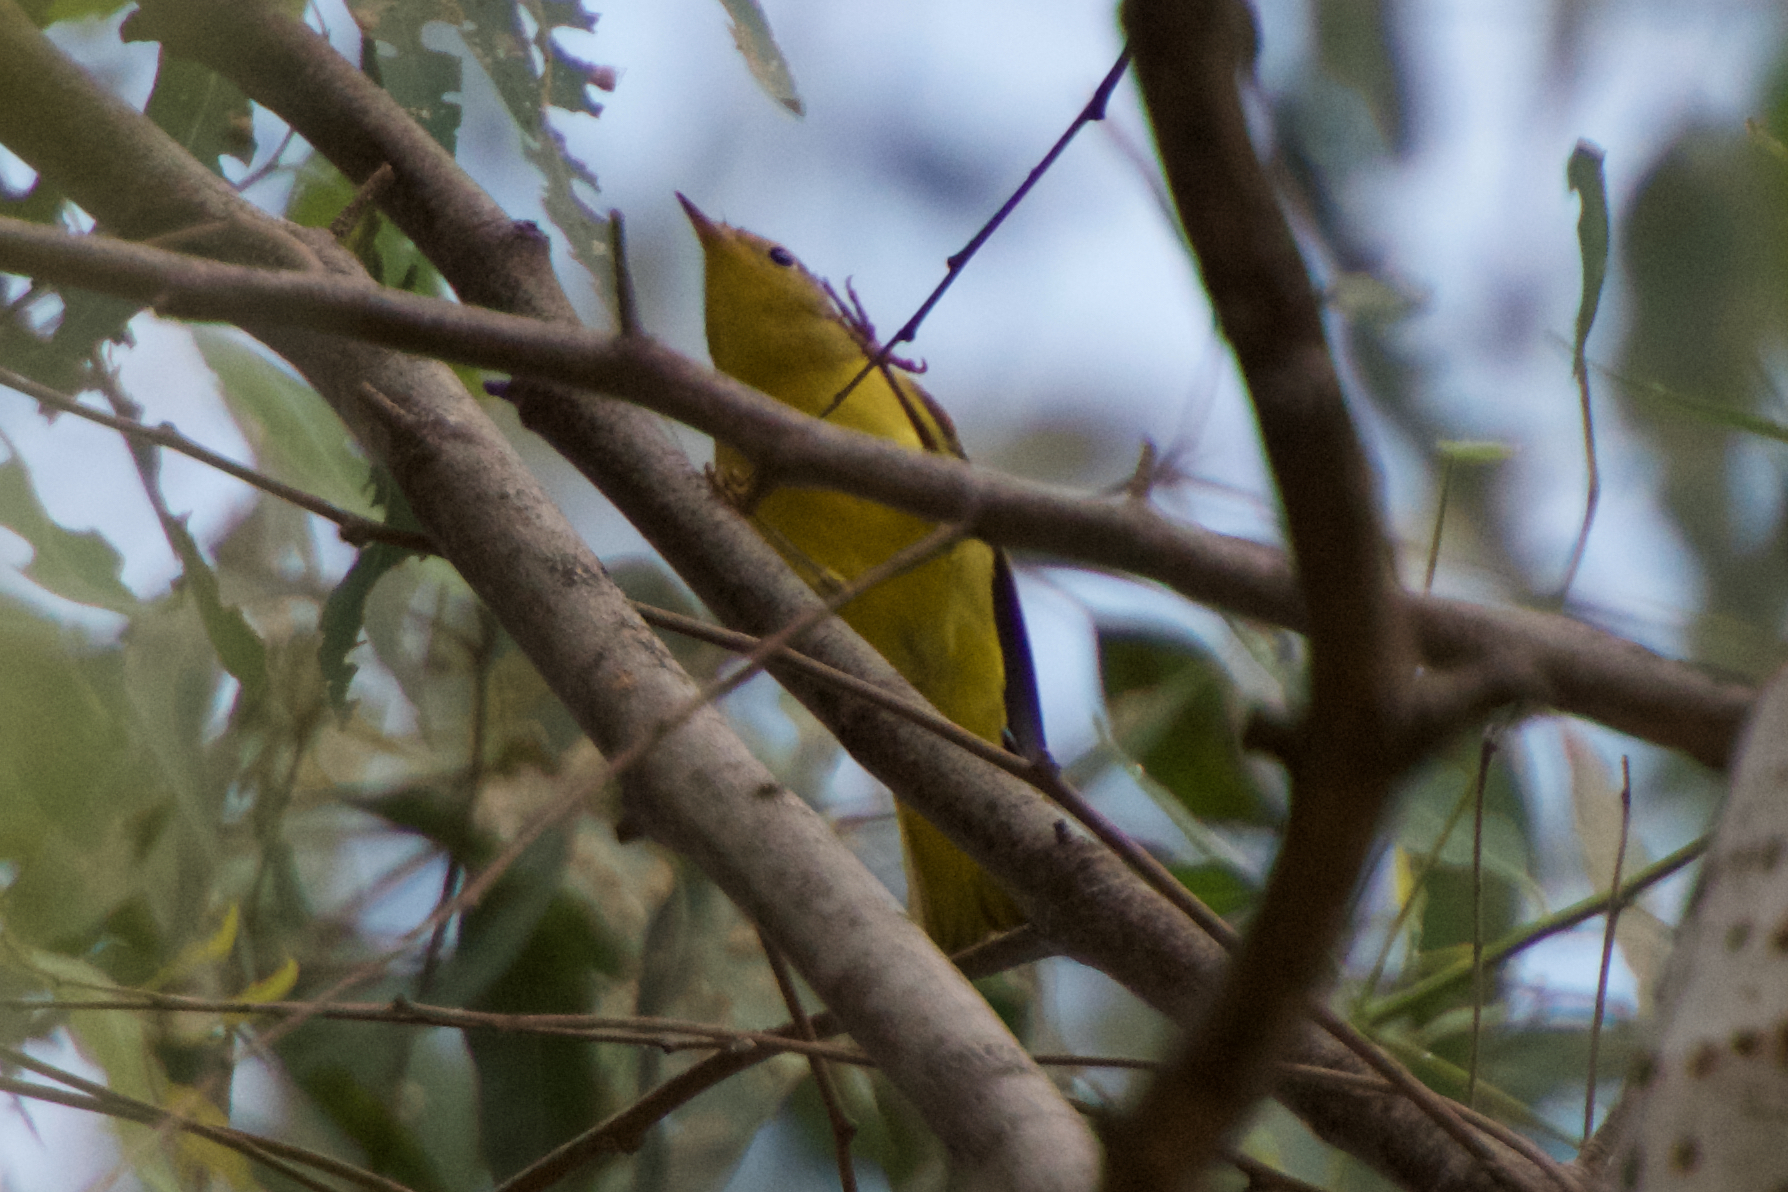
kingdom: Animalia
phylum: Chordata
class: Aves
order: Passeriformes
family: Parulidae
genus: Setophaga
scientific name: Setophaga petechia
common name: Yellow warbler
